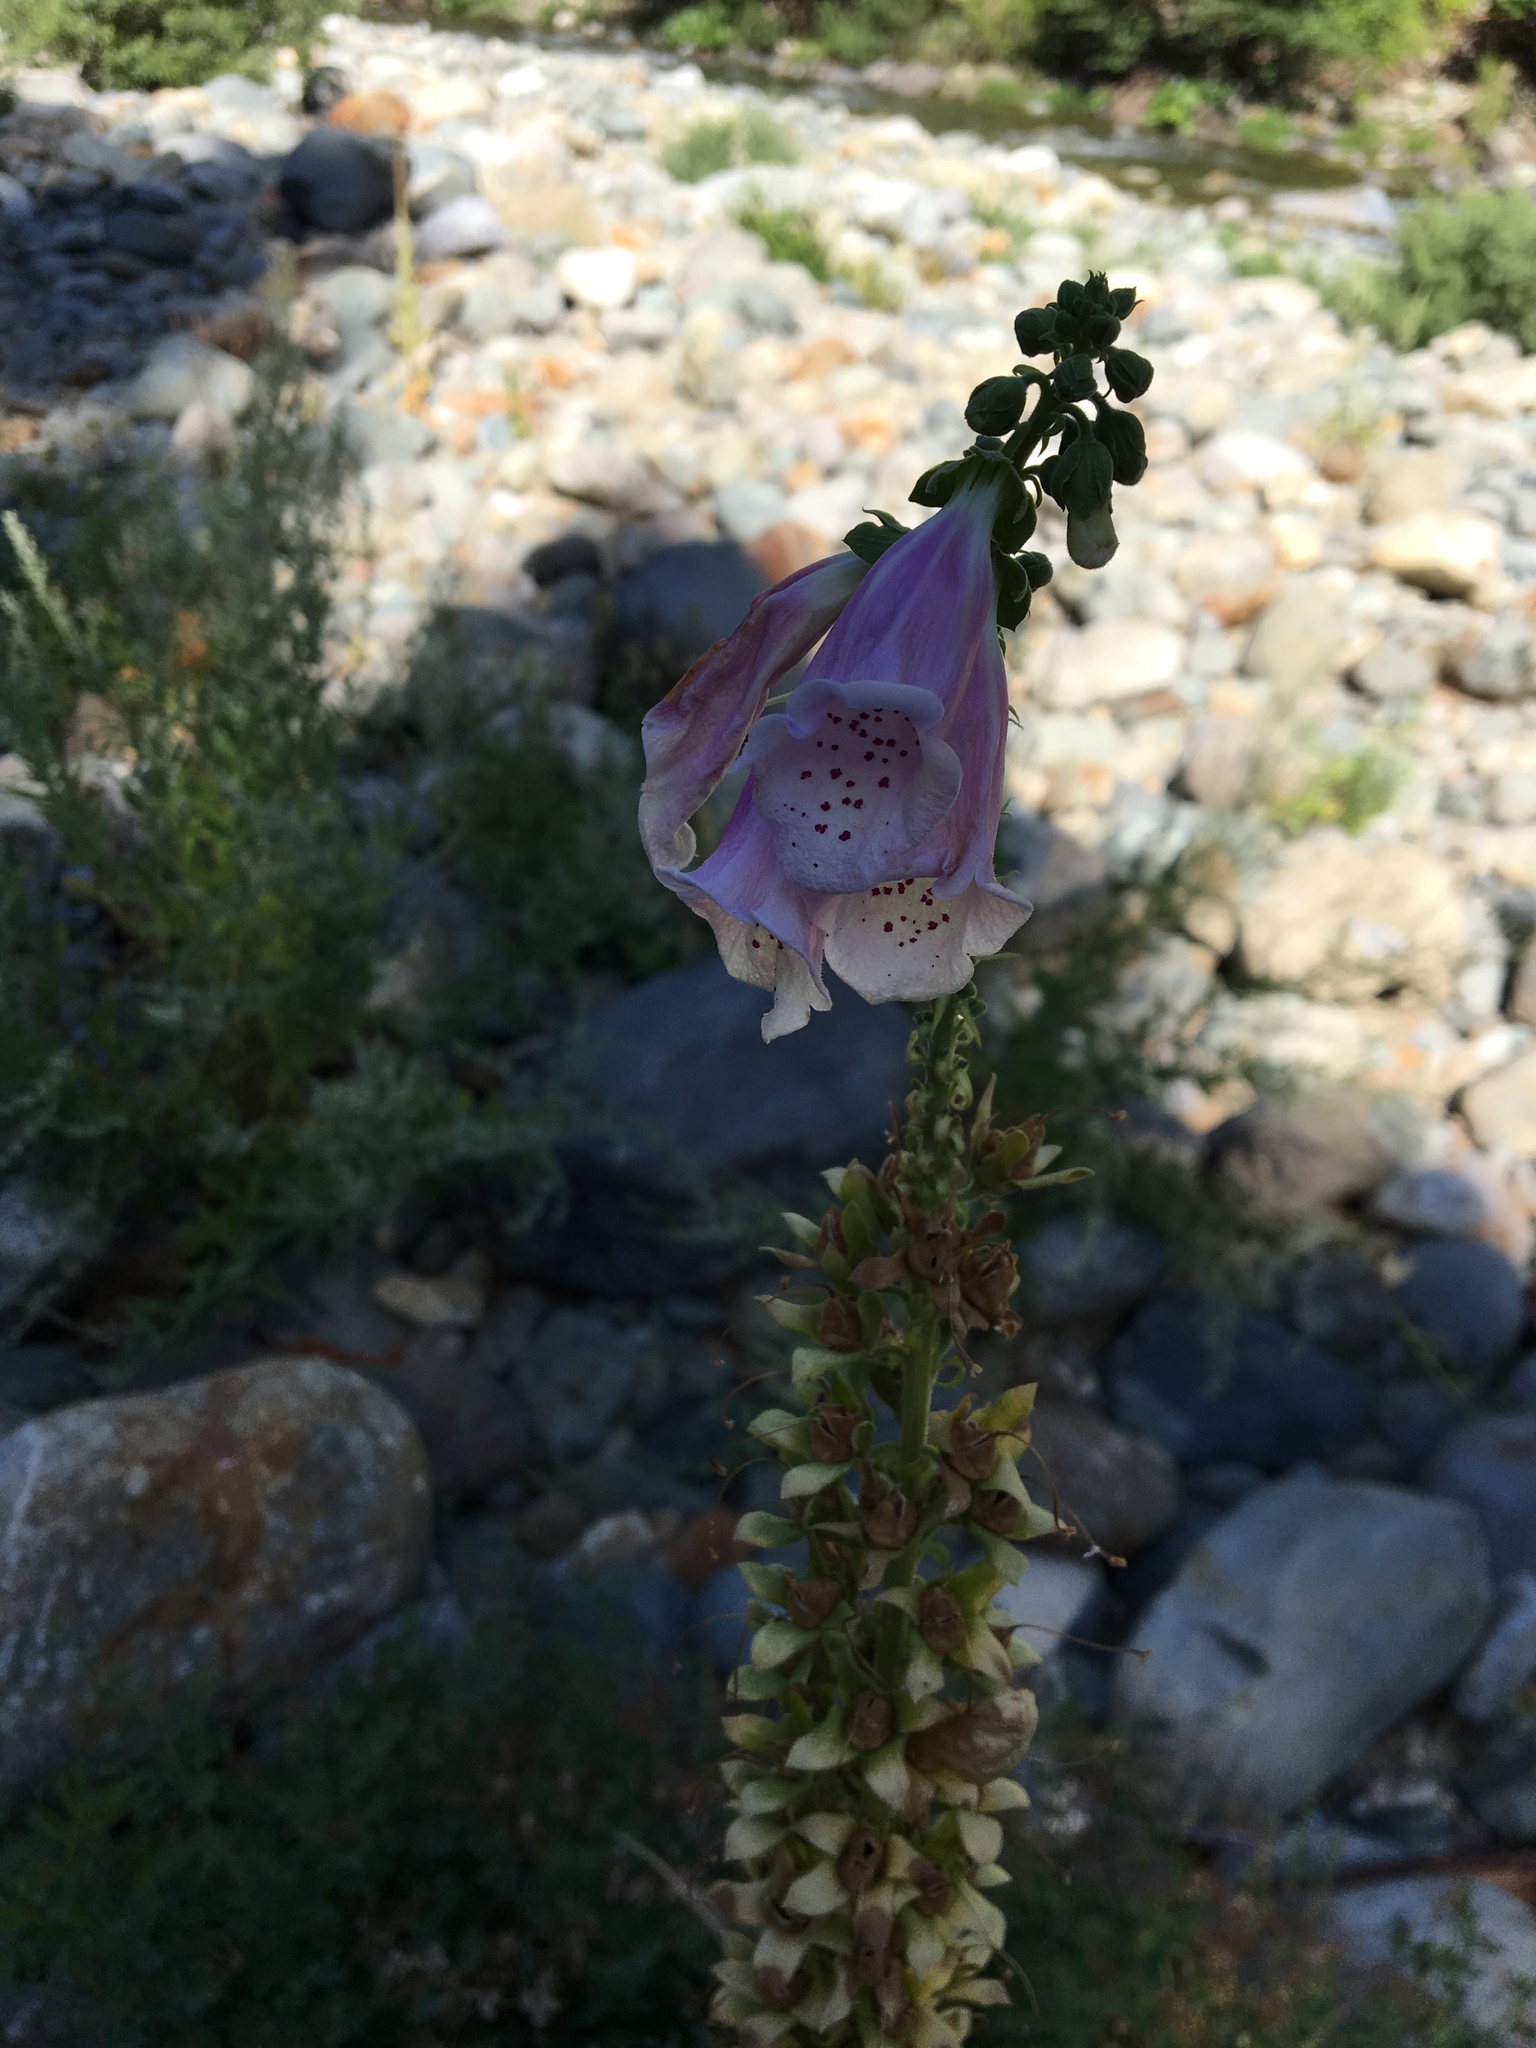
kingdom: Plantae
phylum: Tracheophyta
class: Magnoliopsida
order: Lamiales
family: Plantaginaceae
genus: Digitalis
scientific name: Digitalis purpurea
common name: Foxglove
